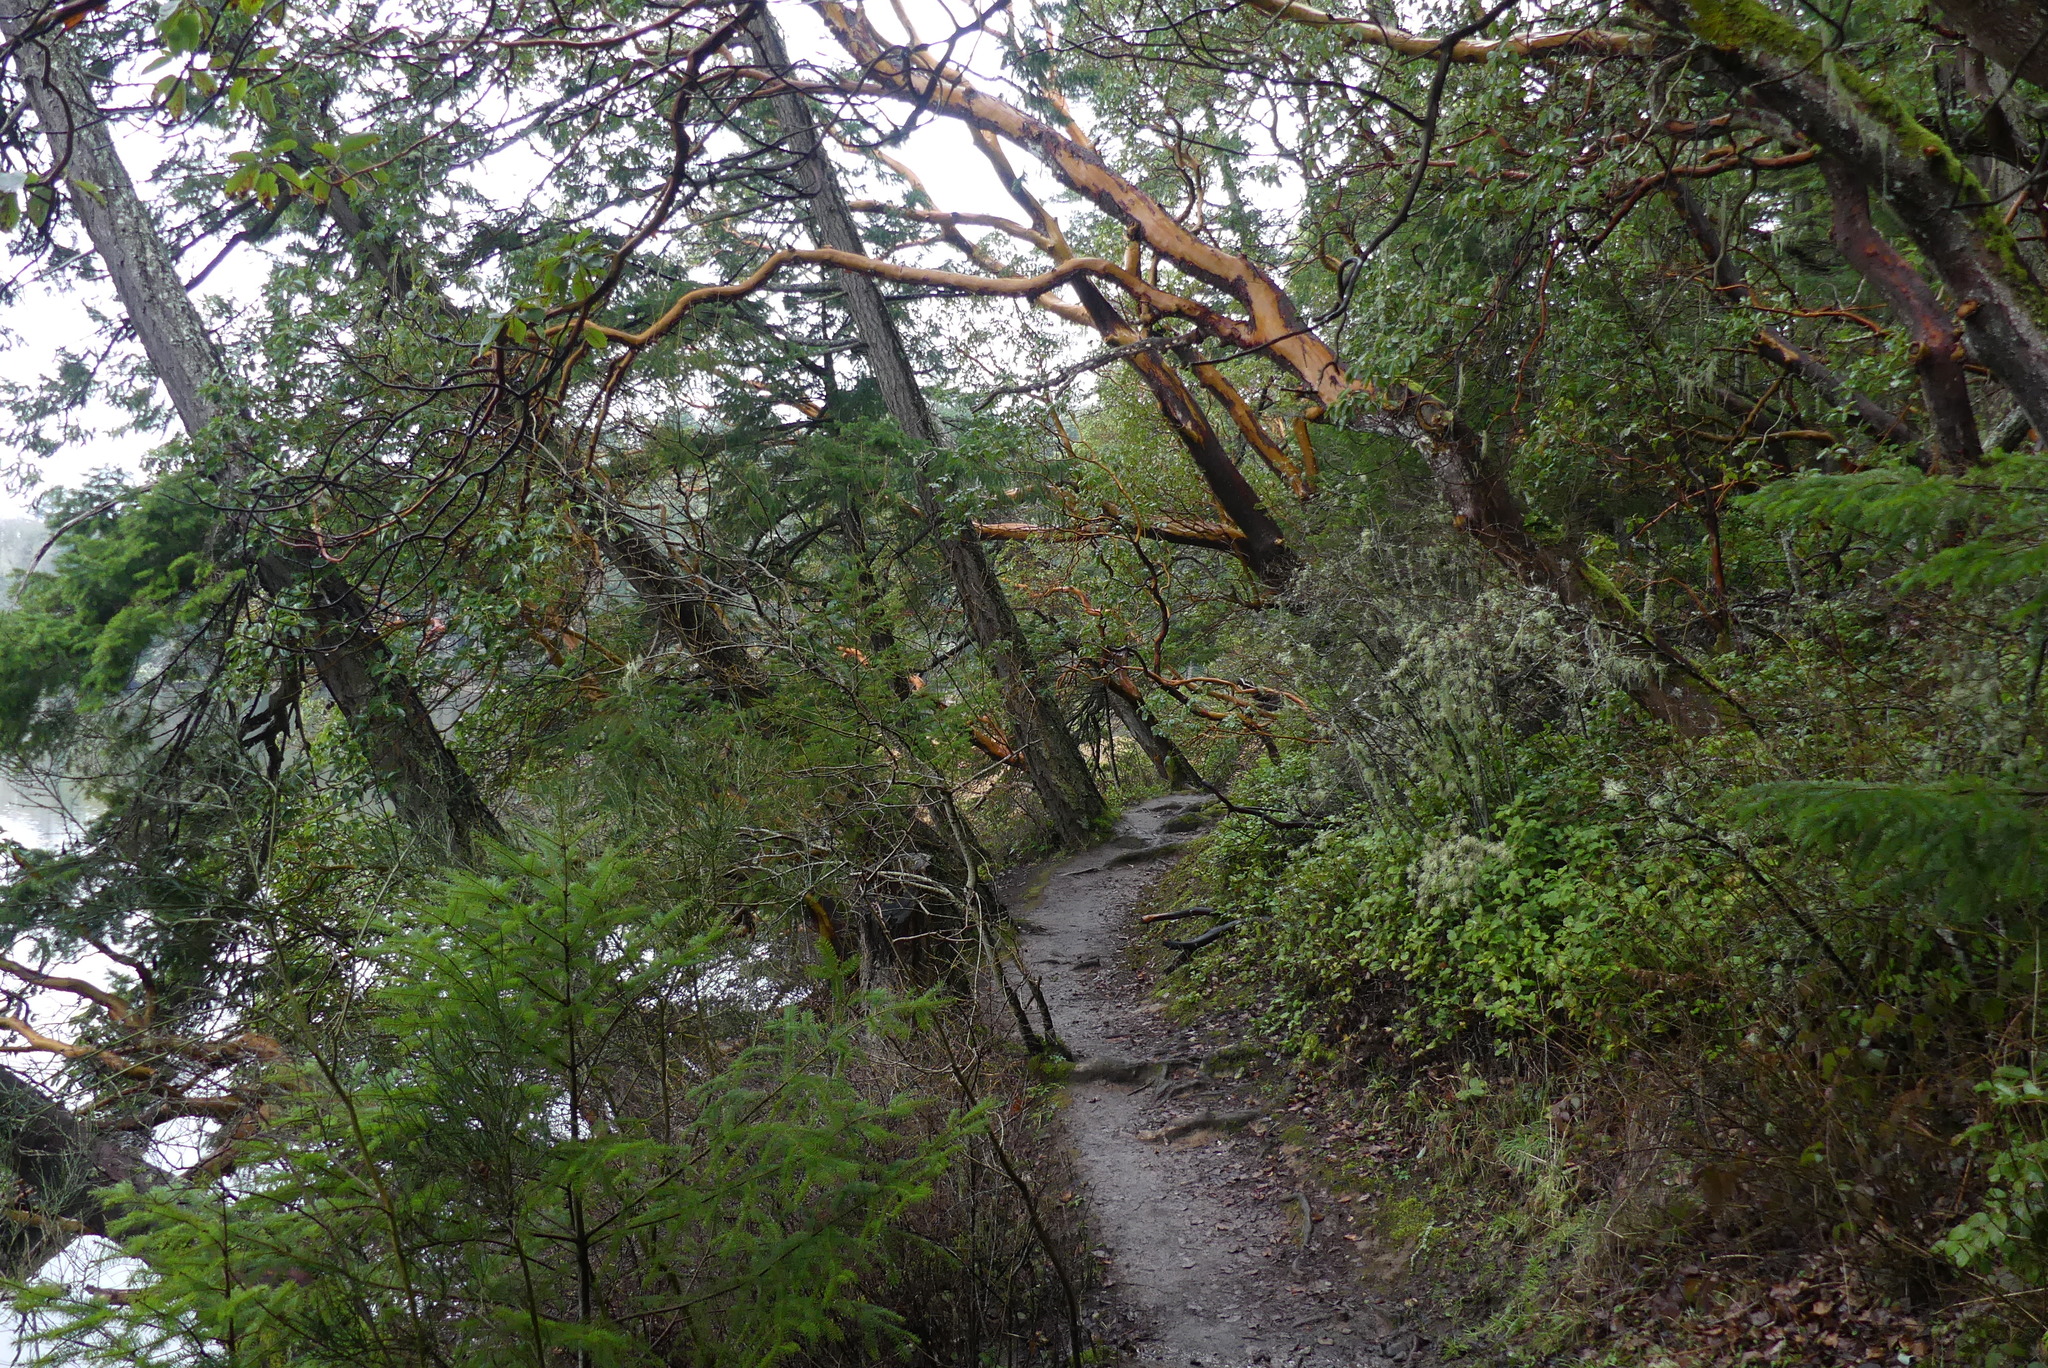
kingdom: Plantae
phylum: Tracheophyta
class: Magnoliopsida
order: Ericales
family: Ericaceae
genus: Arbutus
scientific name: Arbutus menziesii
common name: Pacific madrone
